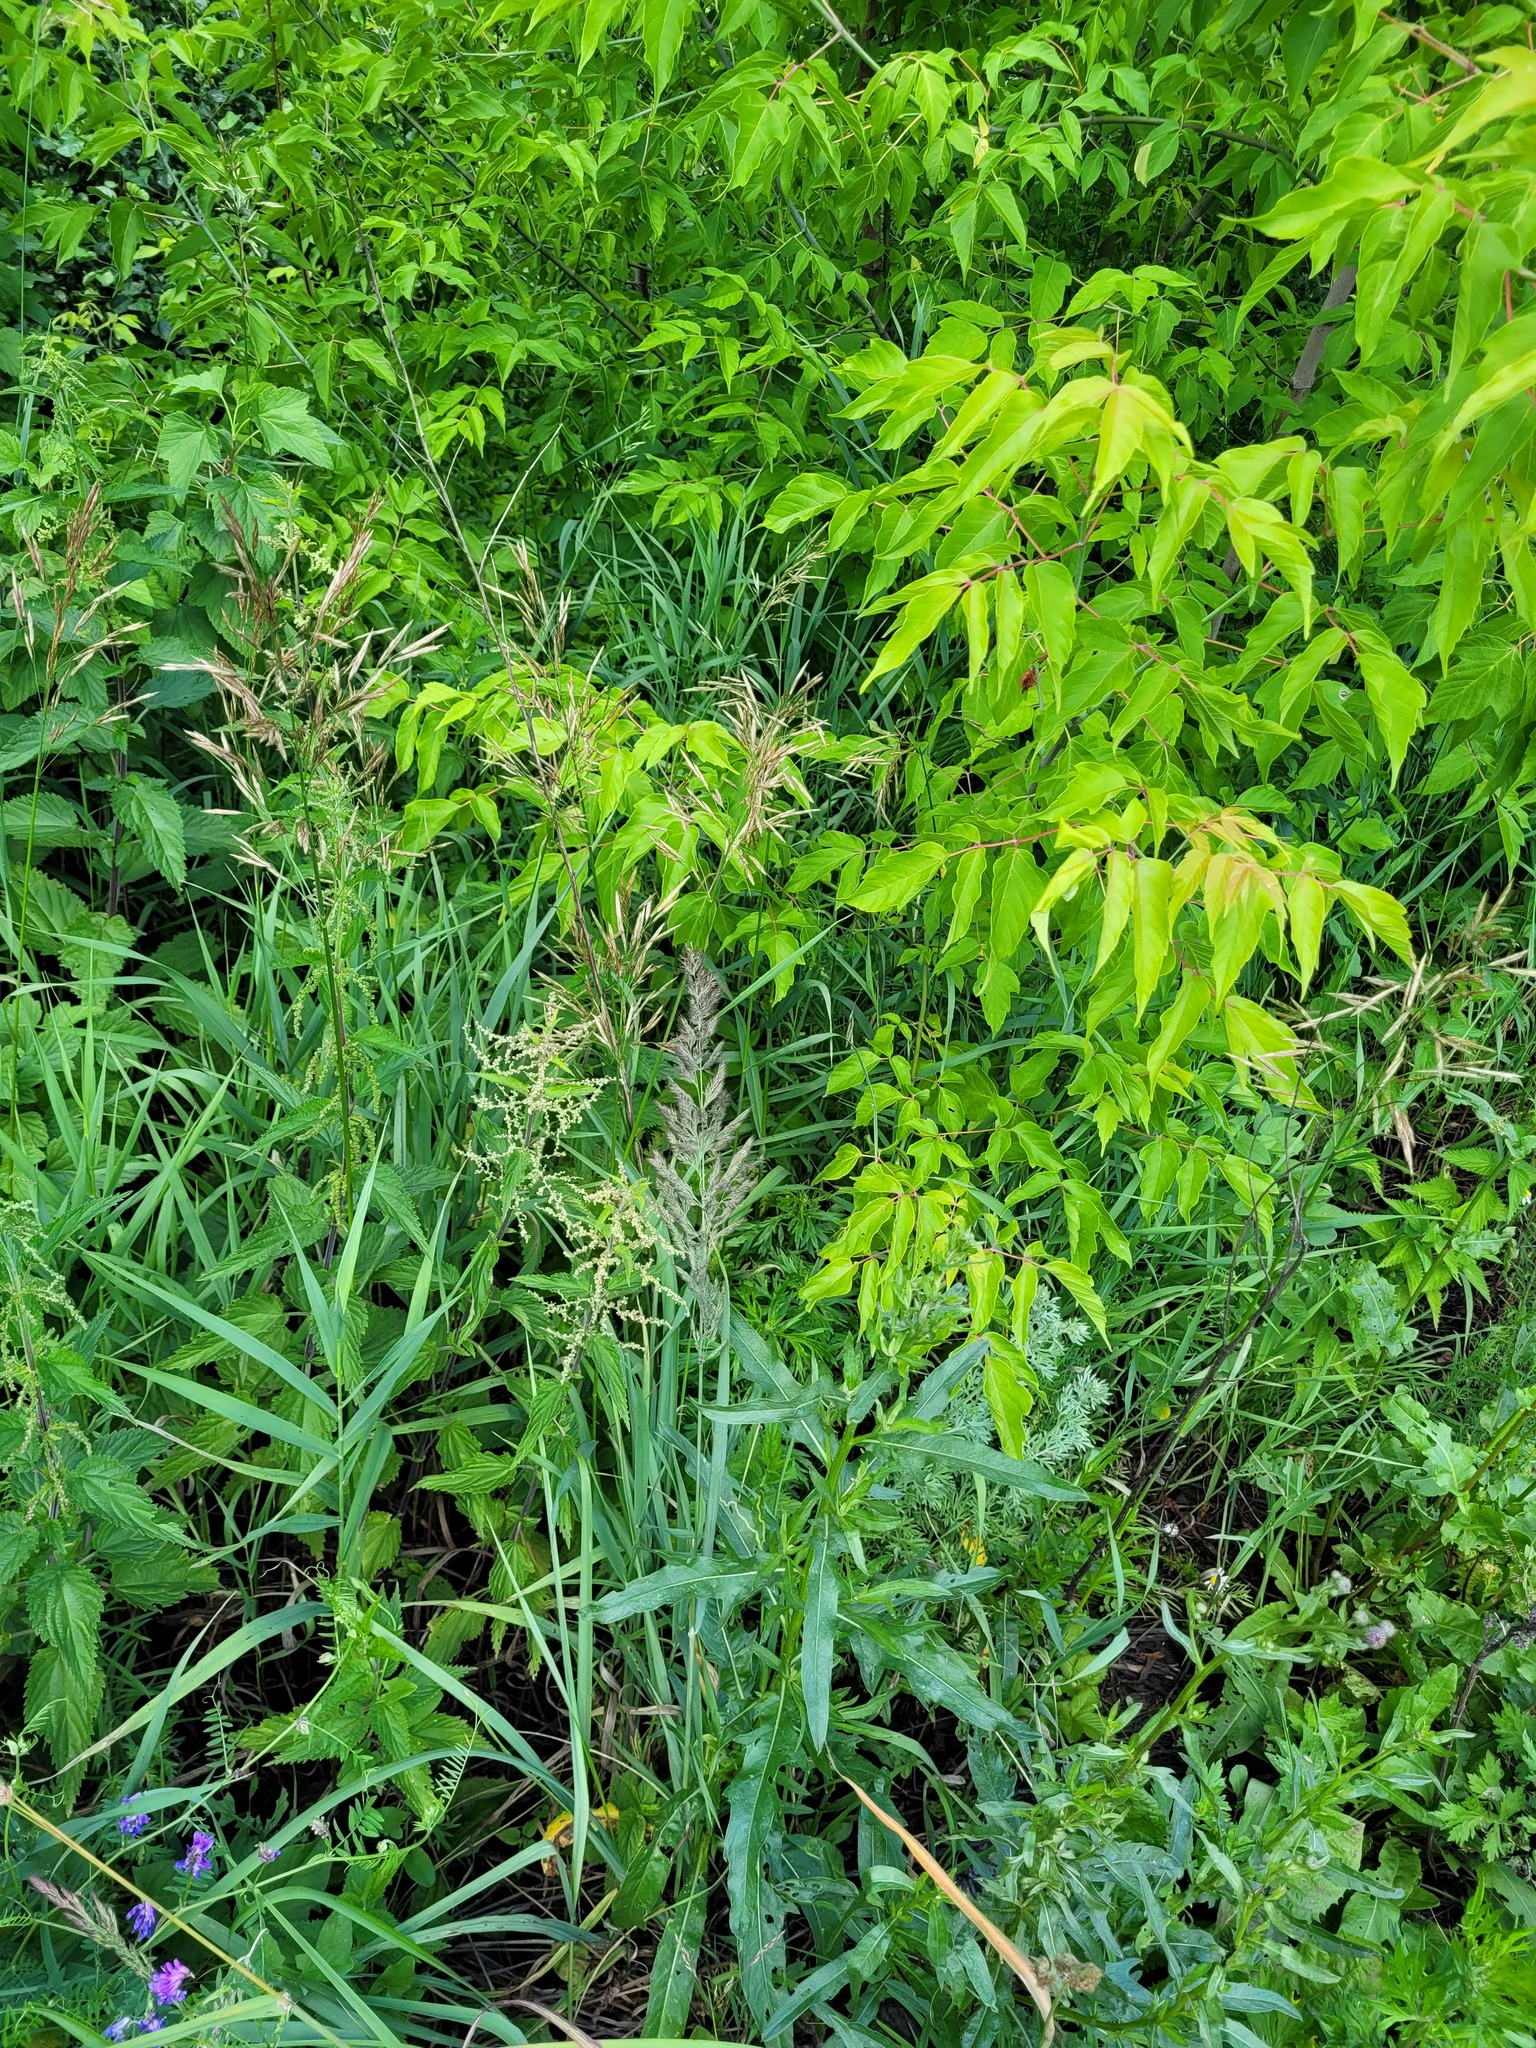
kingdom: Plantae
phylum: Tracheophyta
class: Liliopsida
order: Poales
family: Poaceae
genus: Calamagrostis
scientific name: Calamagrostis epigejos
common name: Wood small-reed
